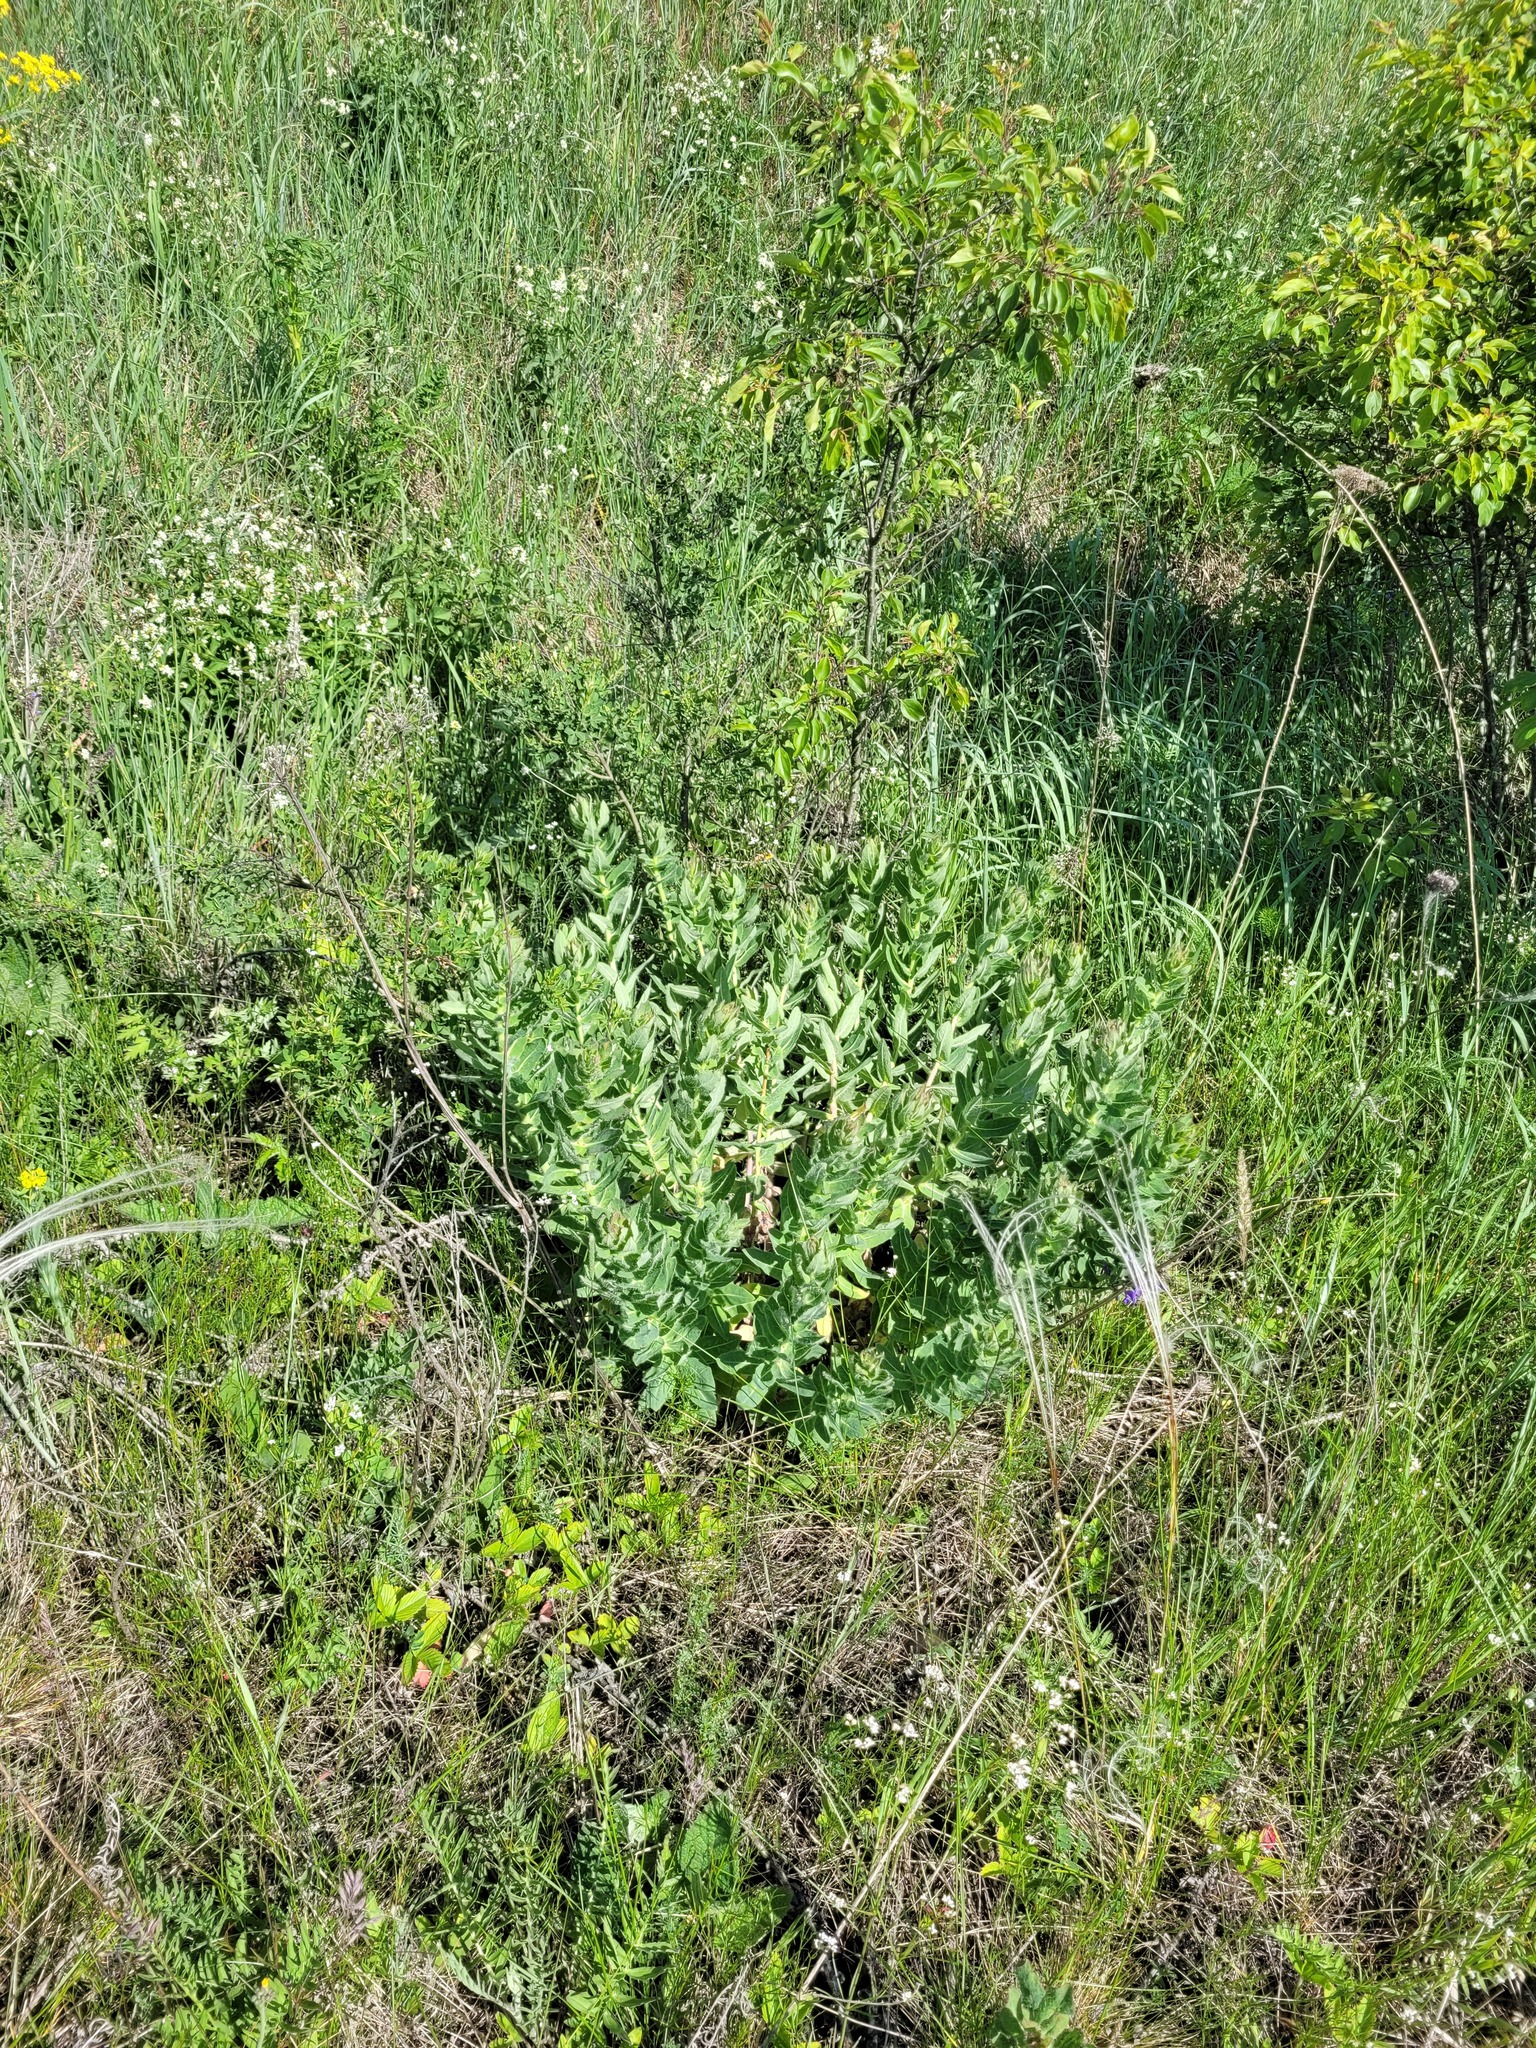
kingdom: Plantae
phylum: Tracheophyta
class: Magnoliopsida
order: Asterales
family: Asteraceae
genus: Hieracium
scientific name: Hieracium virosum
